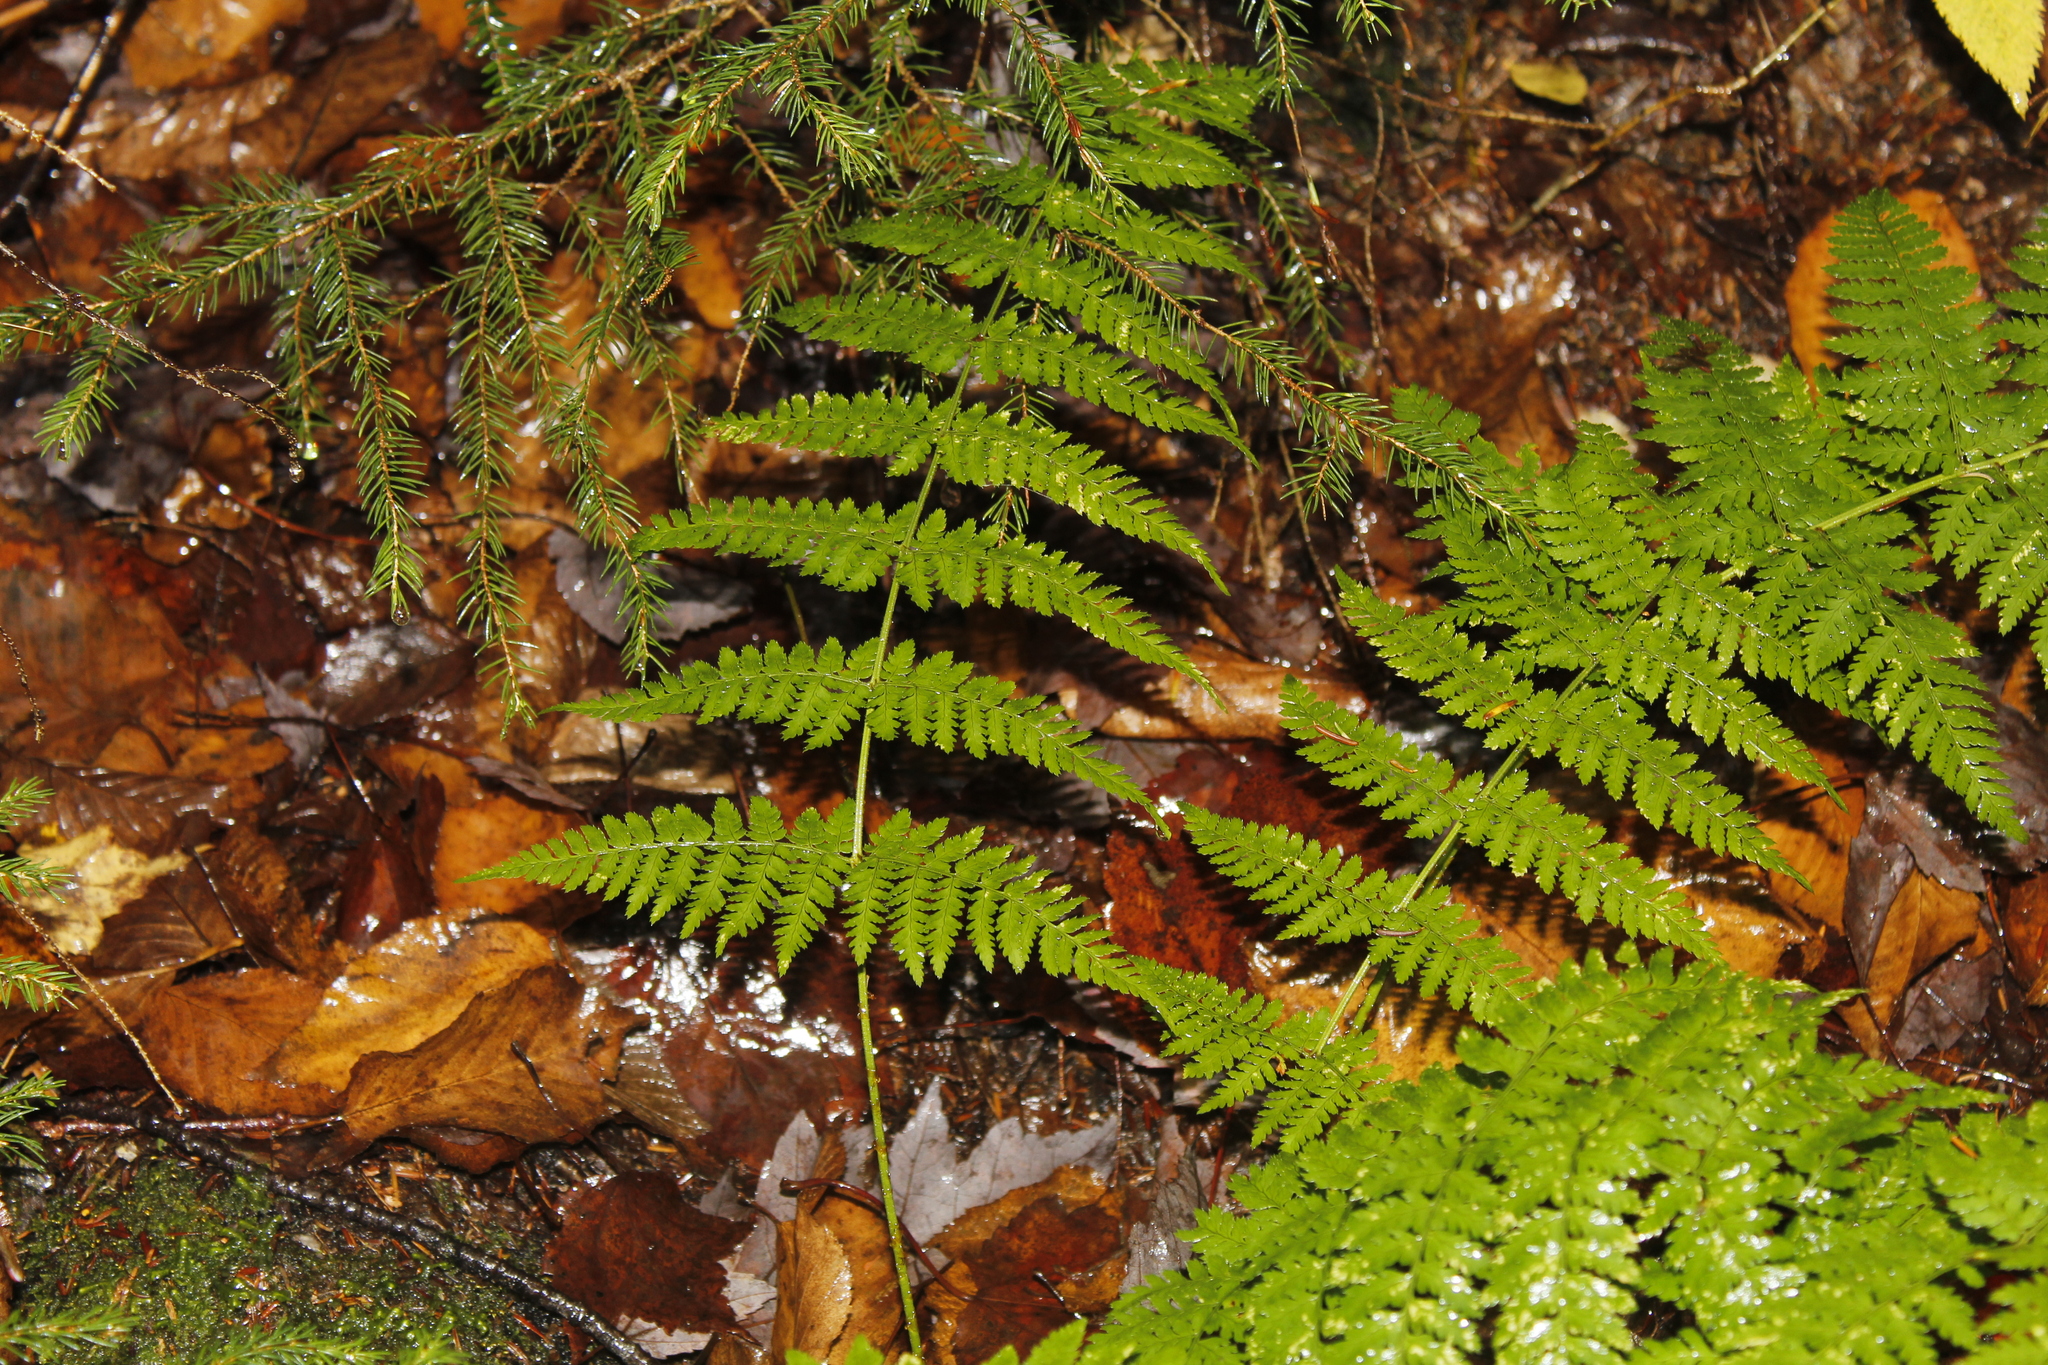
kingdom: Plantae
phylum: Tracheophyta
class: Polypodiopsida
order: Polypodiales
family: Dryopteridaceae
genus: Dryopteris
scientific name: Dryopteris intermedia
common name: Evergreen wood fern
